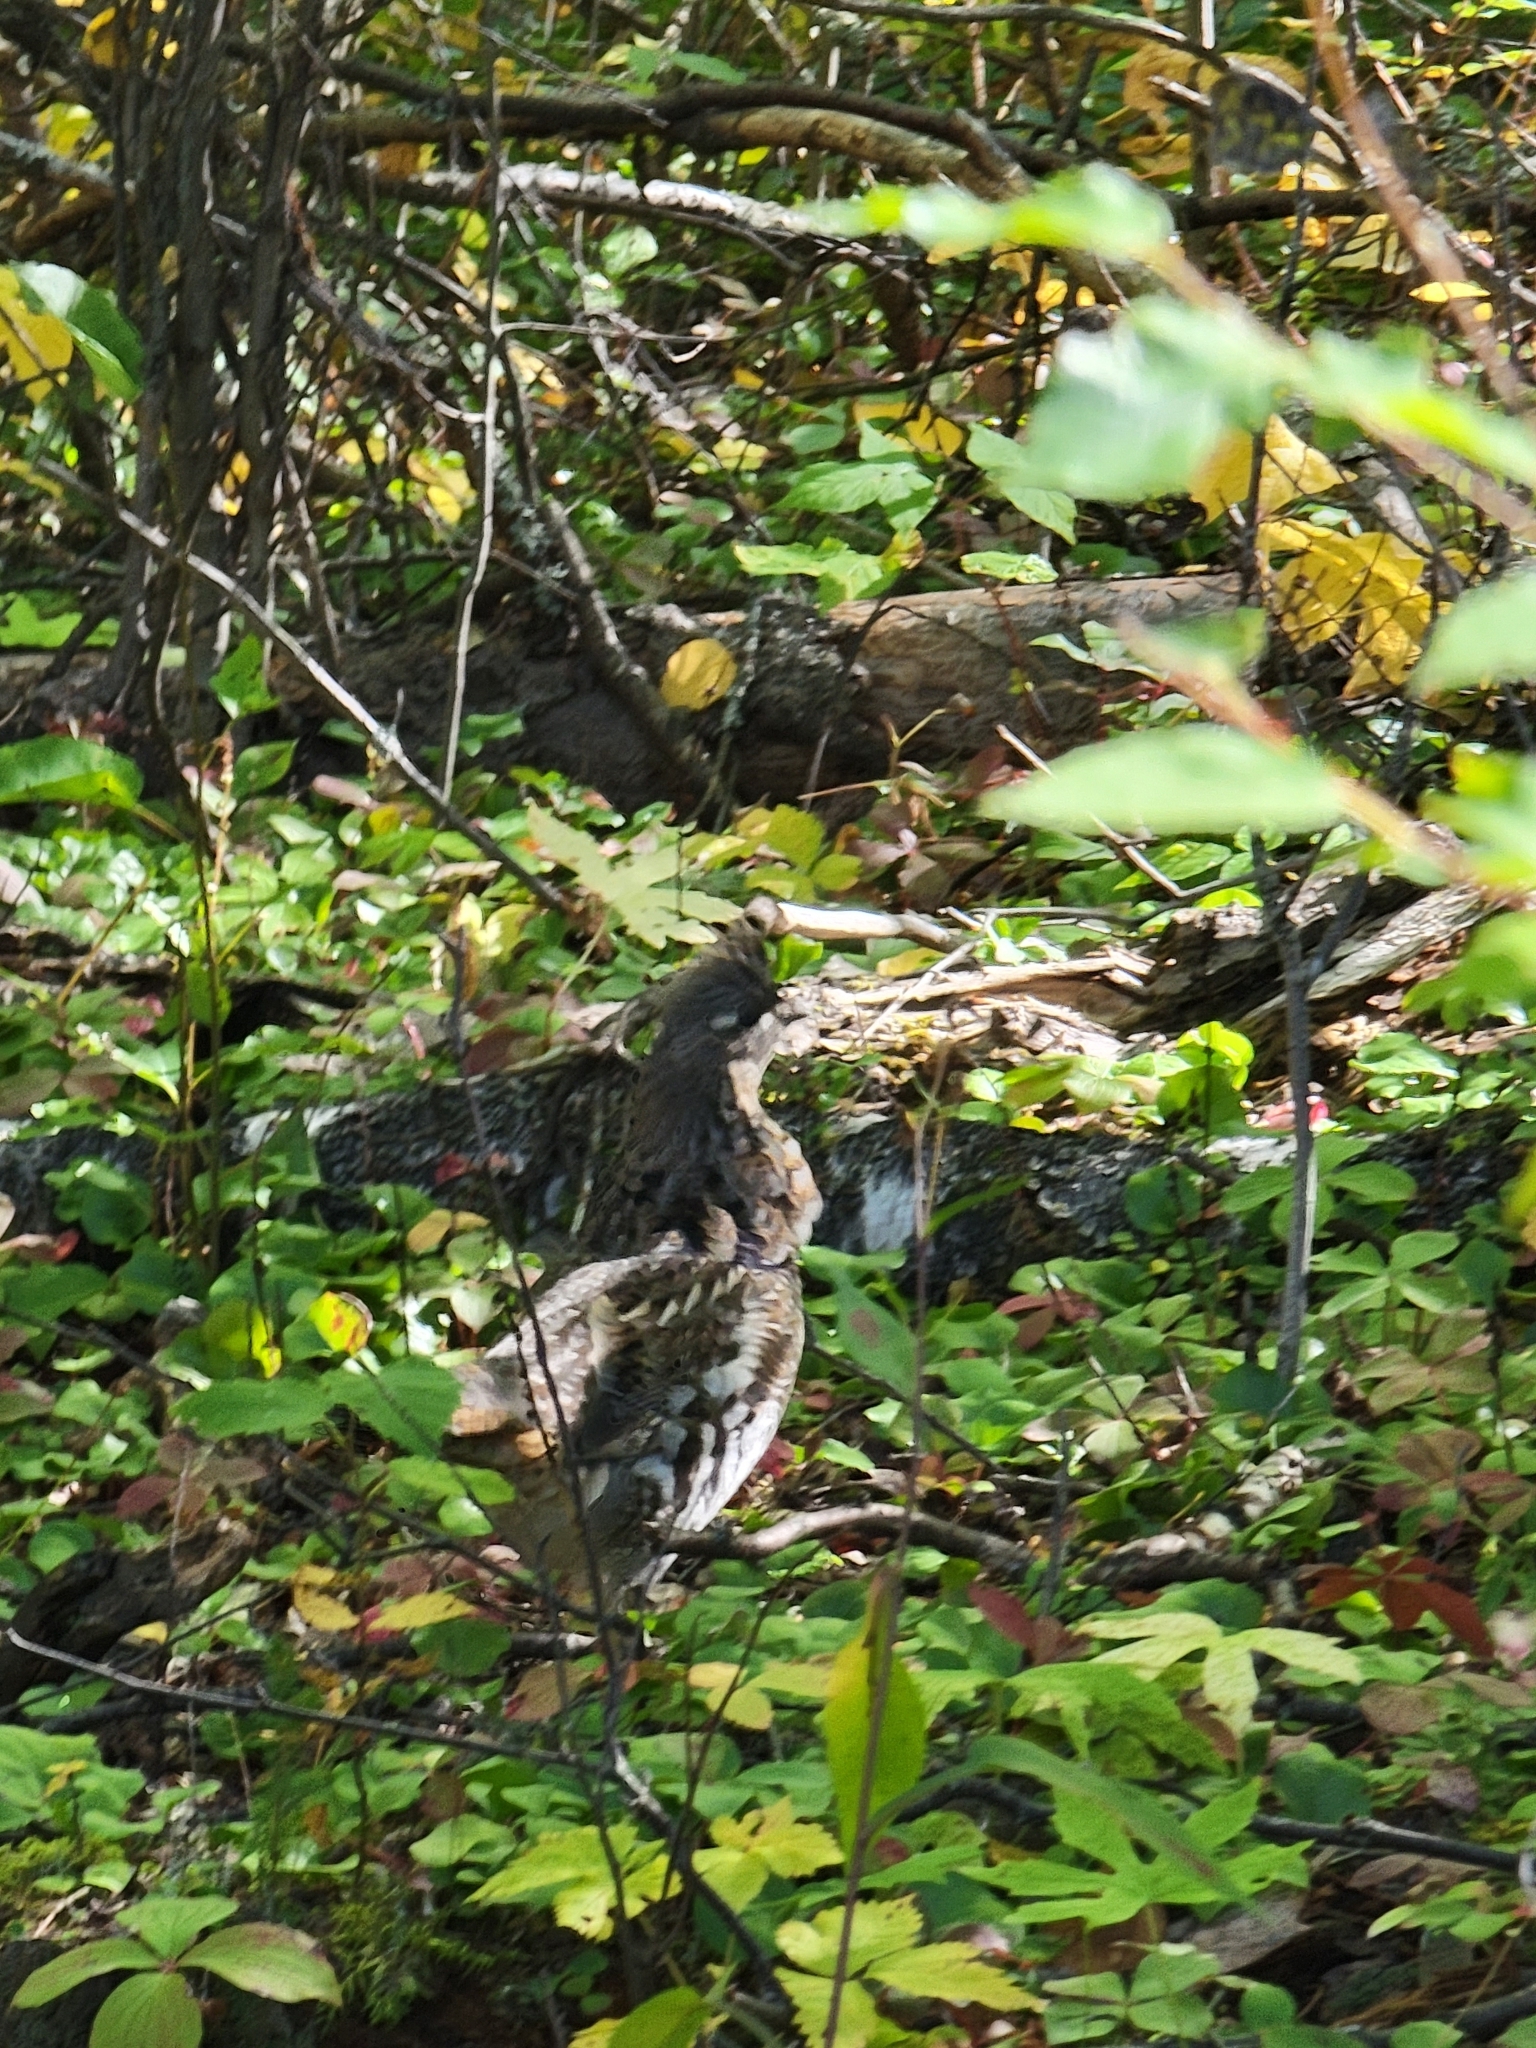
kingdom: Animalia
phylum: Chordata
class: Aves
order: Galliformes
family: Phasianidae
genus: Bonasa
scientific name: Bonasa umbellus
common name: Ruffed grouse
